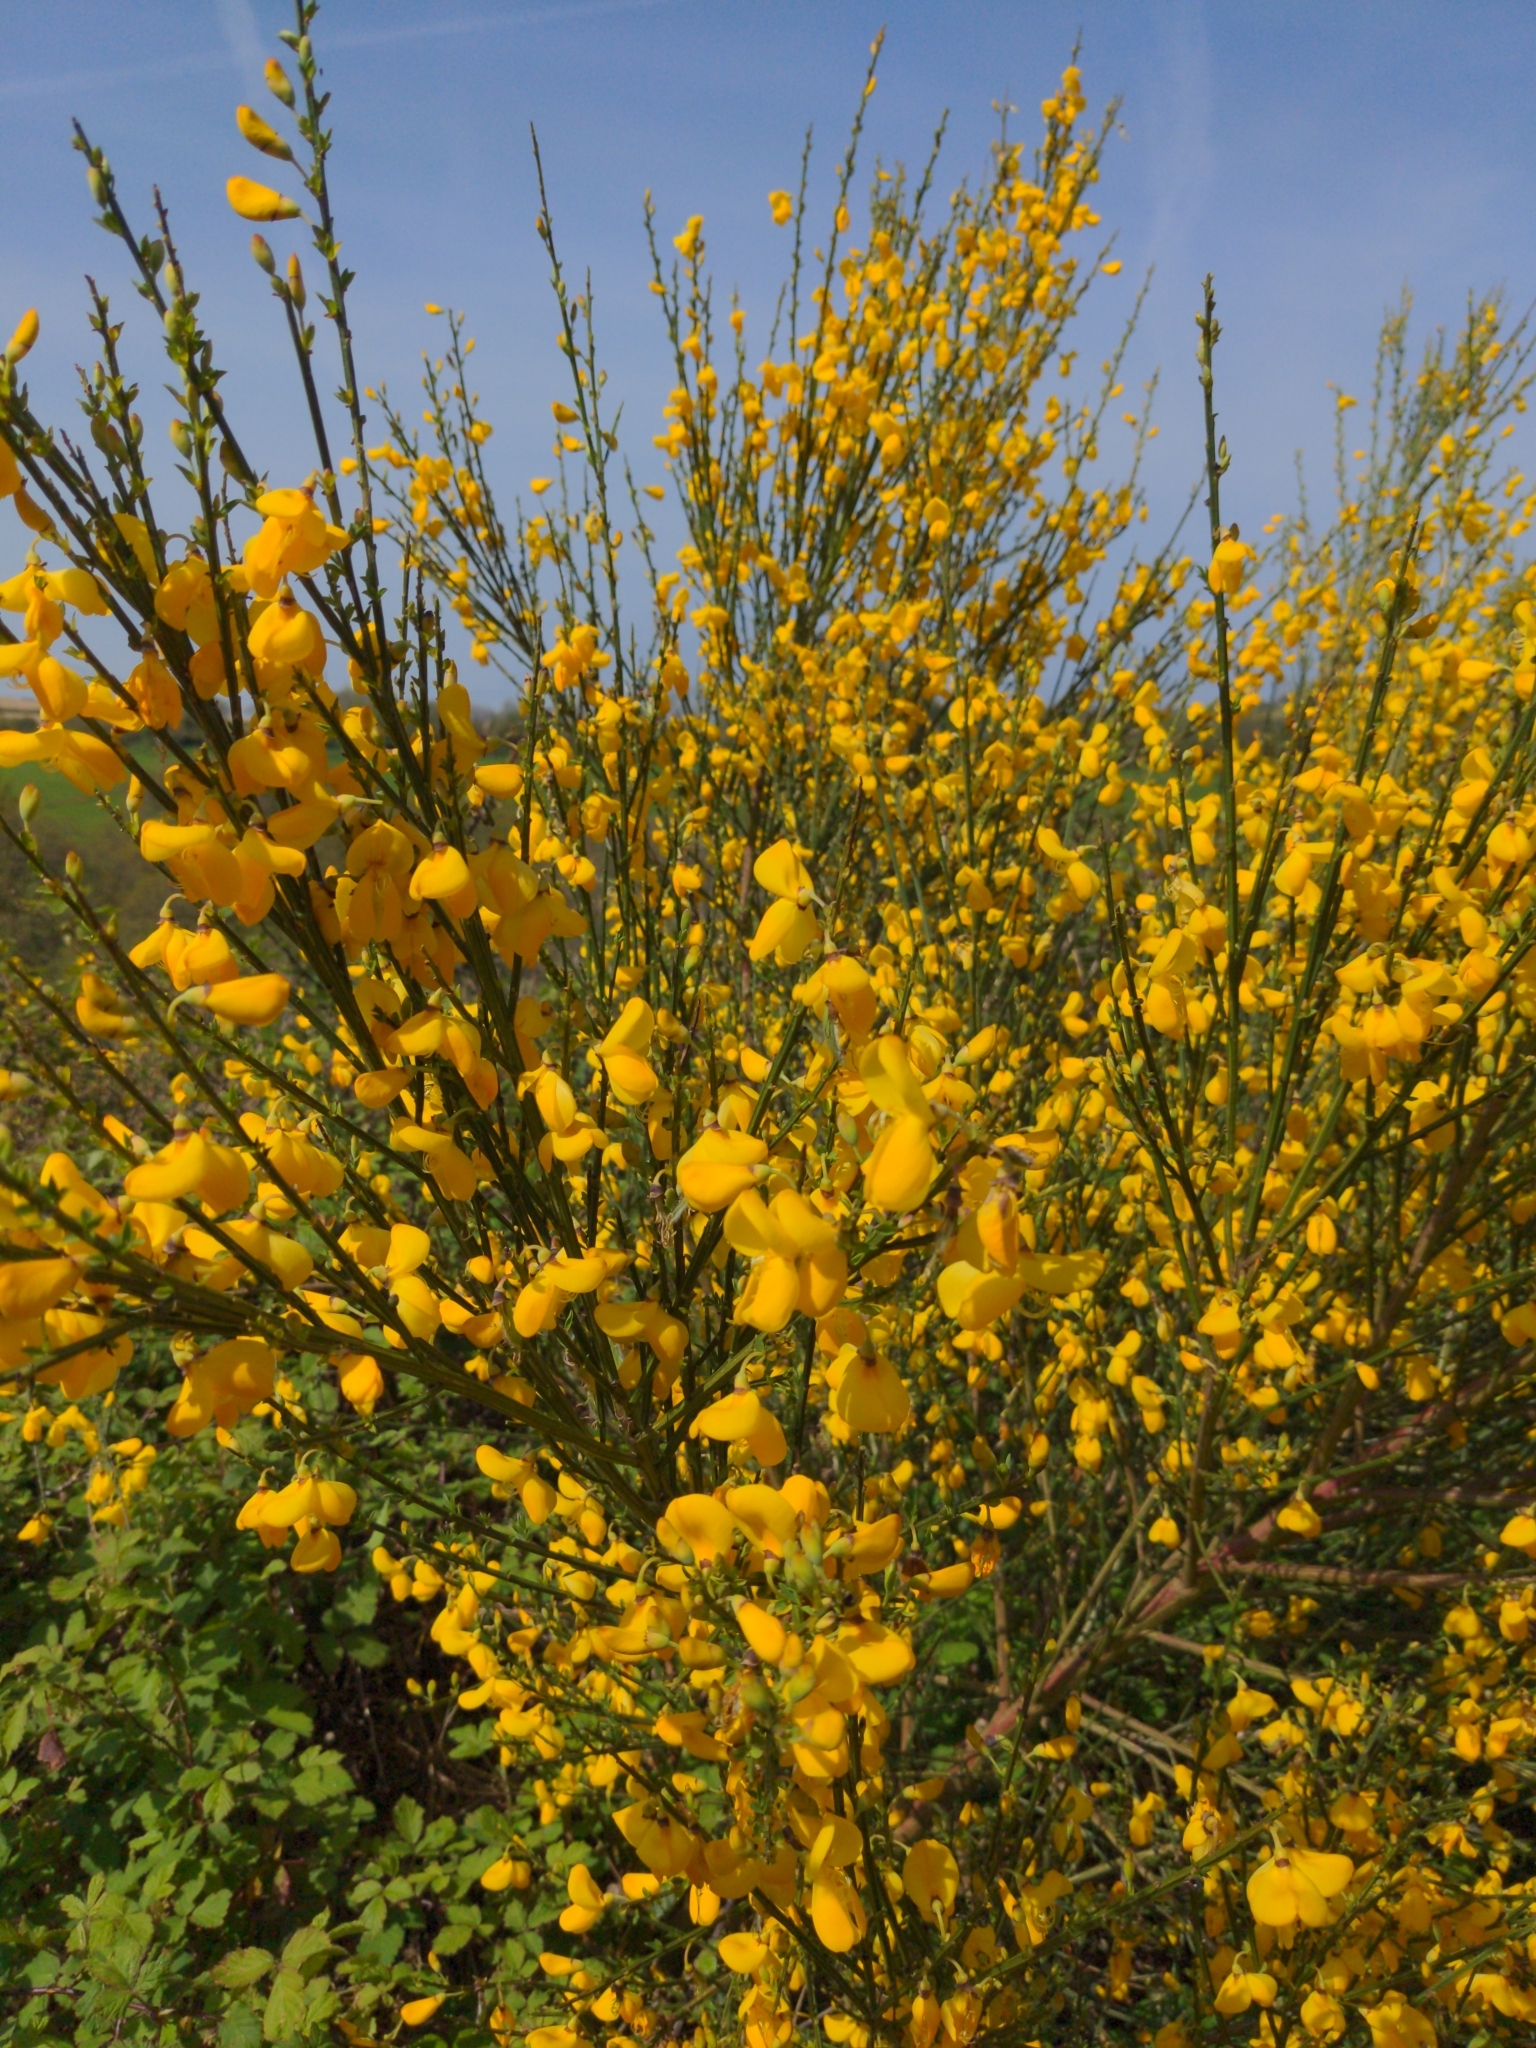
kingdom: Plantae
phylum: Tracheophyta
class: Magnoliopsida
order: Fabales
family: Fabaceae
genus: Cytisus
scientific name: Cytisus scoparius
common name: Scotch broom
